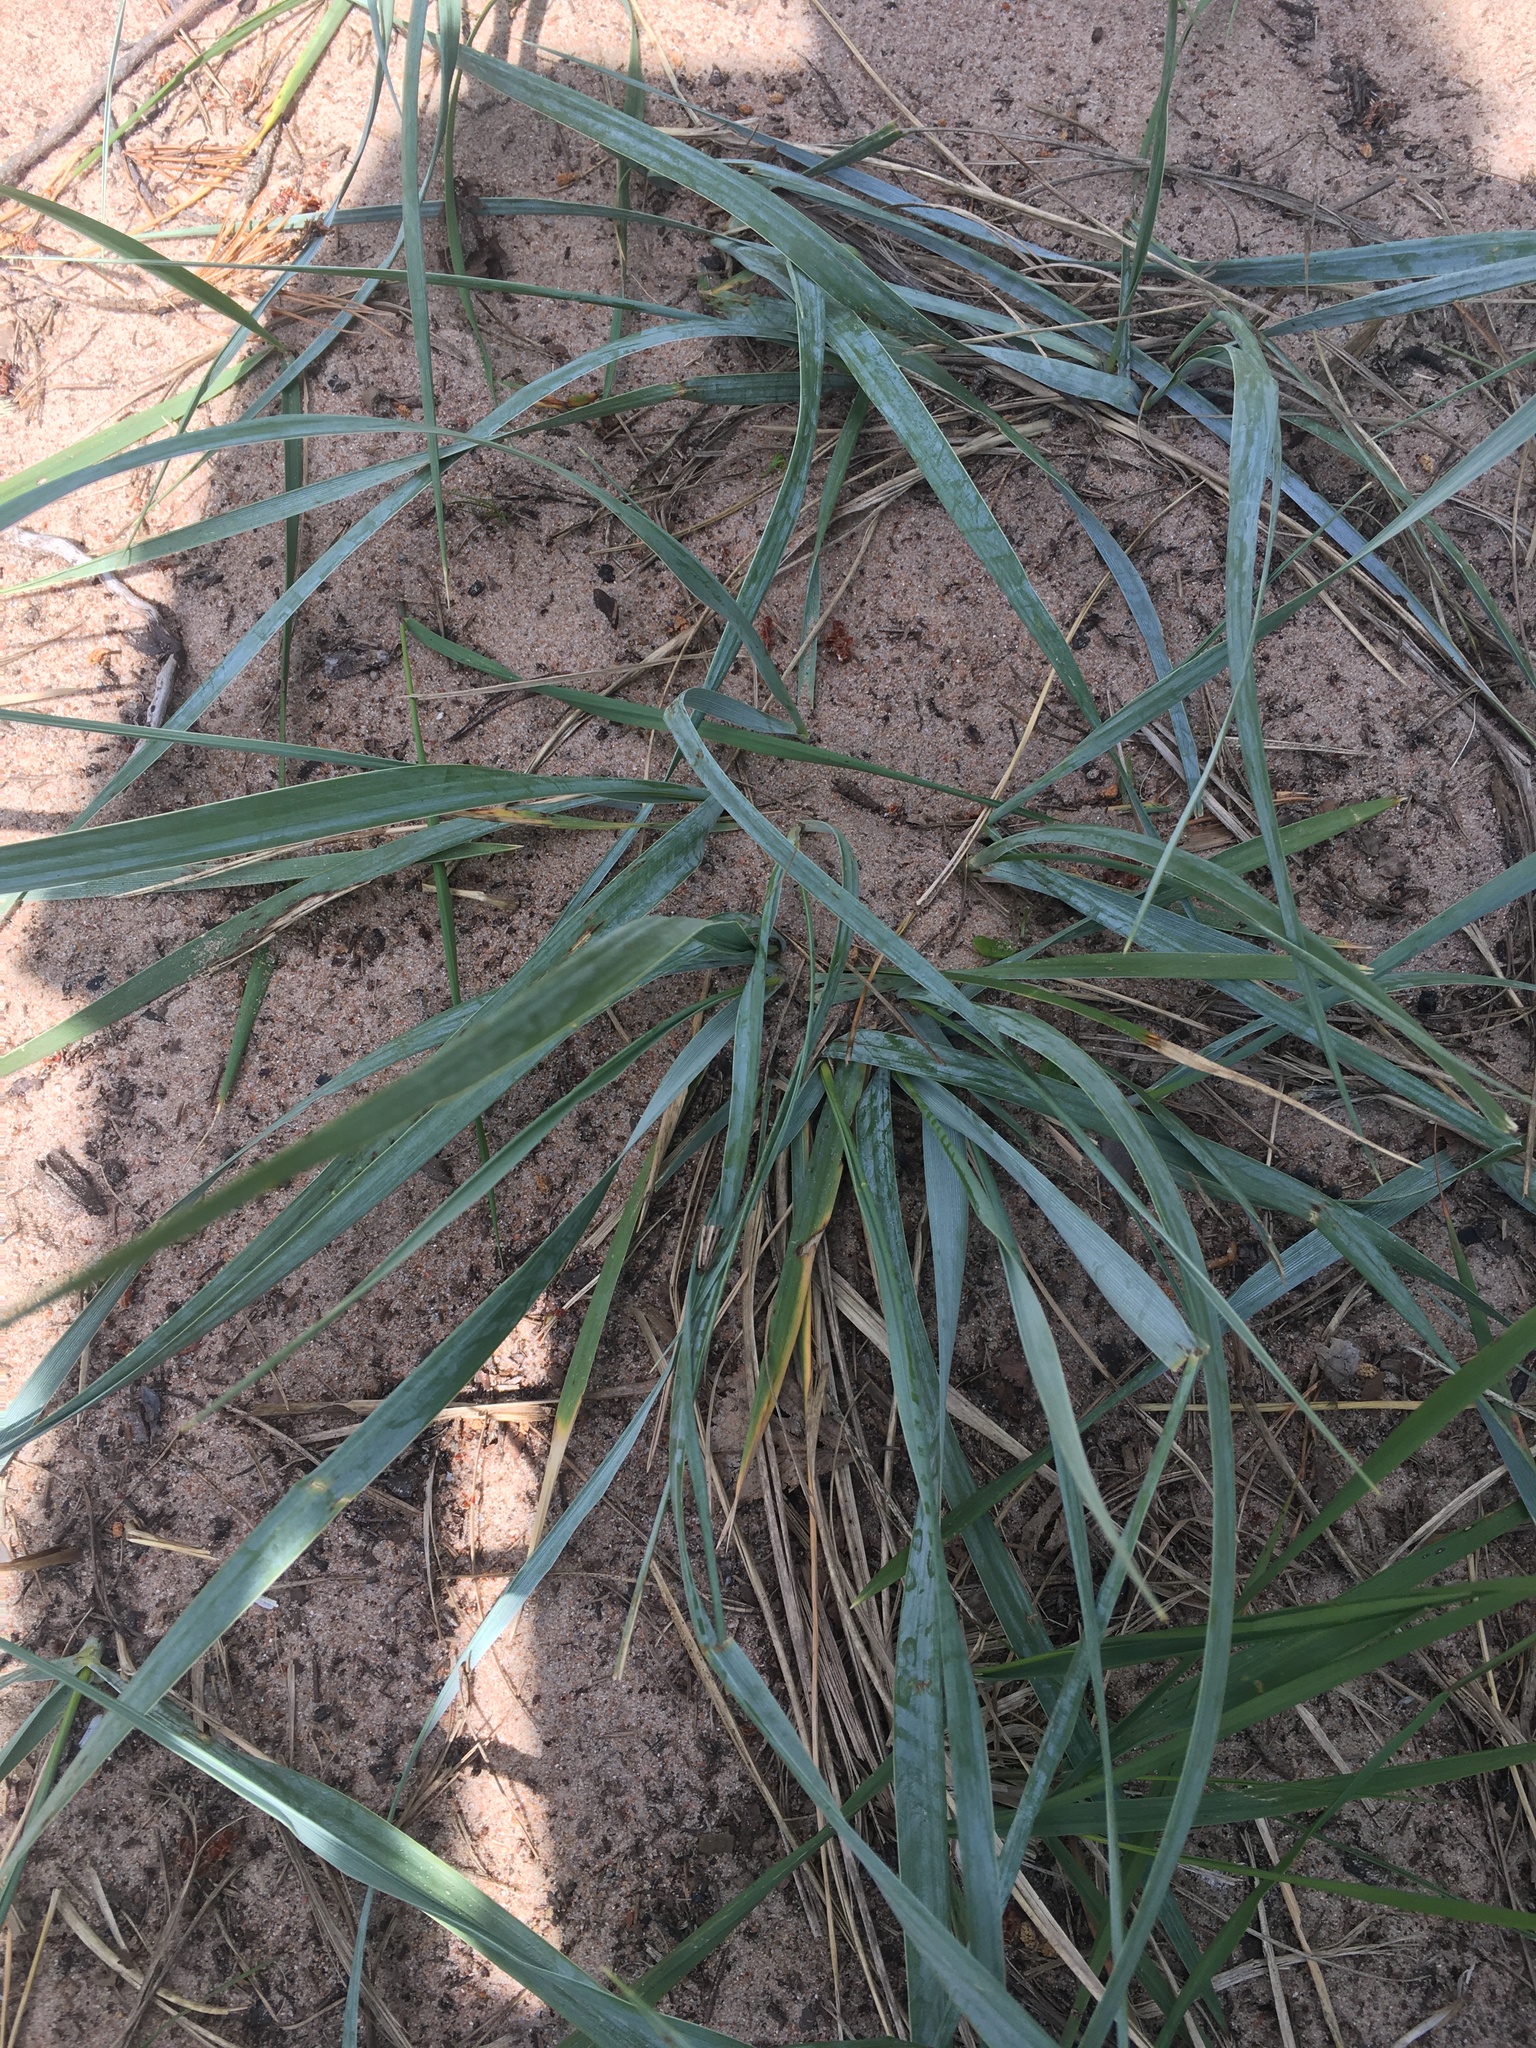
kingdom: Plantae
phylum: Tracheophyta
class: Liliopsida
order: Poales
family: Poaceae
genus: Leymus
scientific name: Leymus arenarius
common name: Lyme-grass
